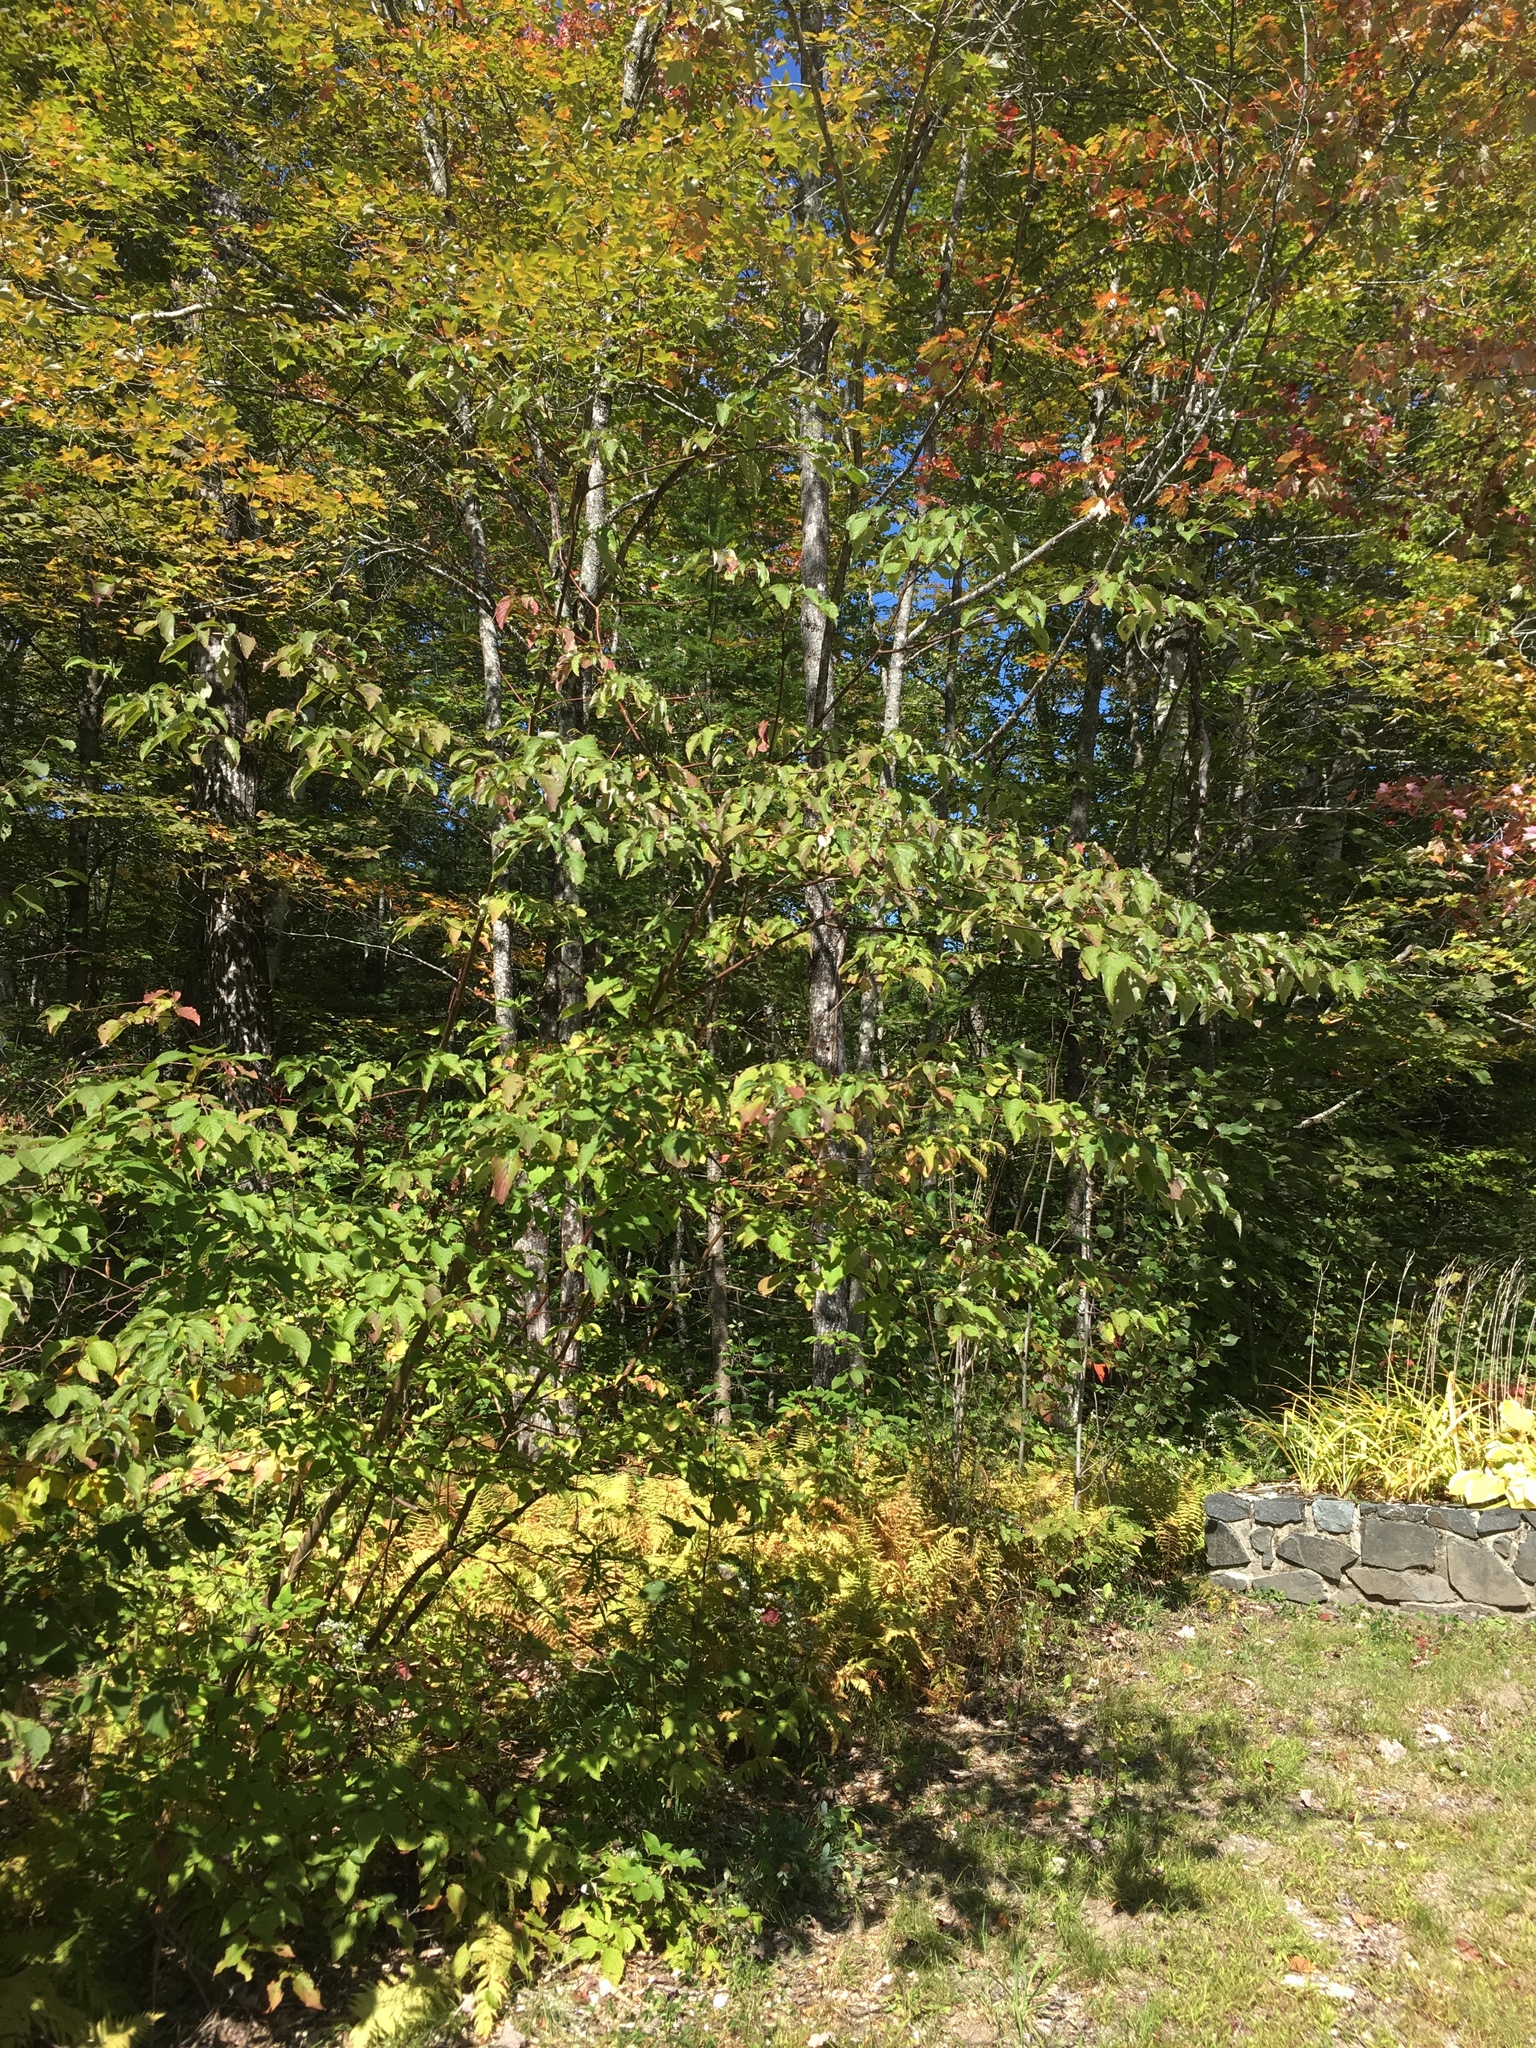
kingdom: Plantae
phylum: Tracheophyta
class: Magnoliopsida
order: Cornales
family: Cornaceae
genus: Cornus
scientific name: Cornus alternifolia
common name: Pagoda dogwood
